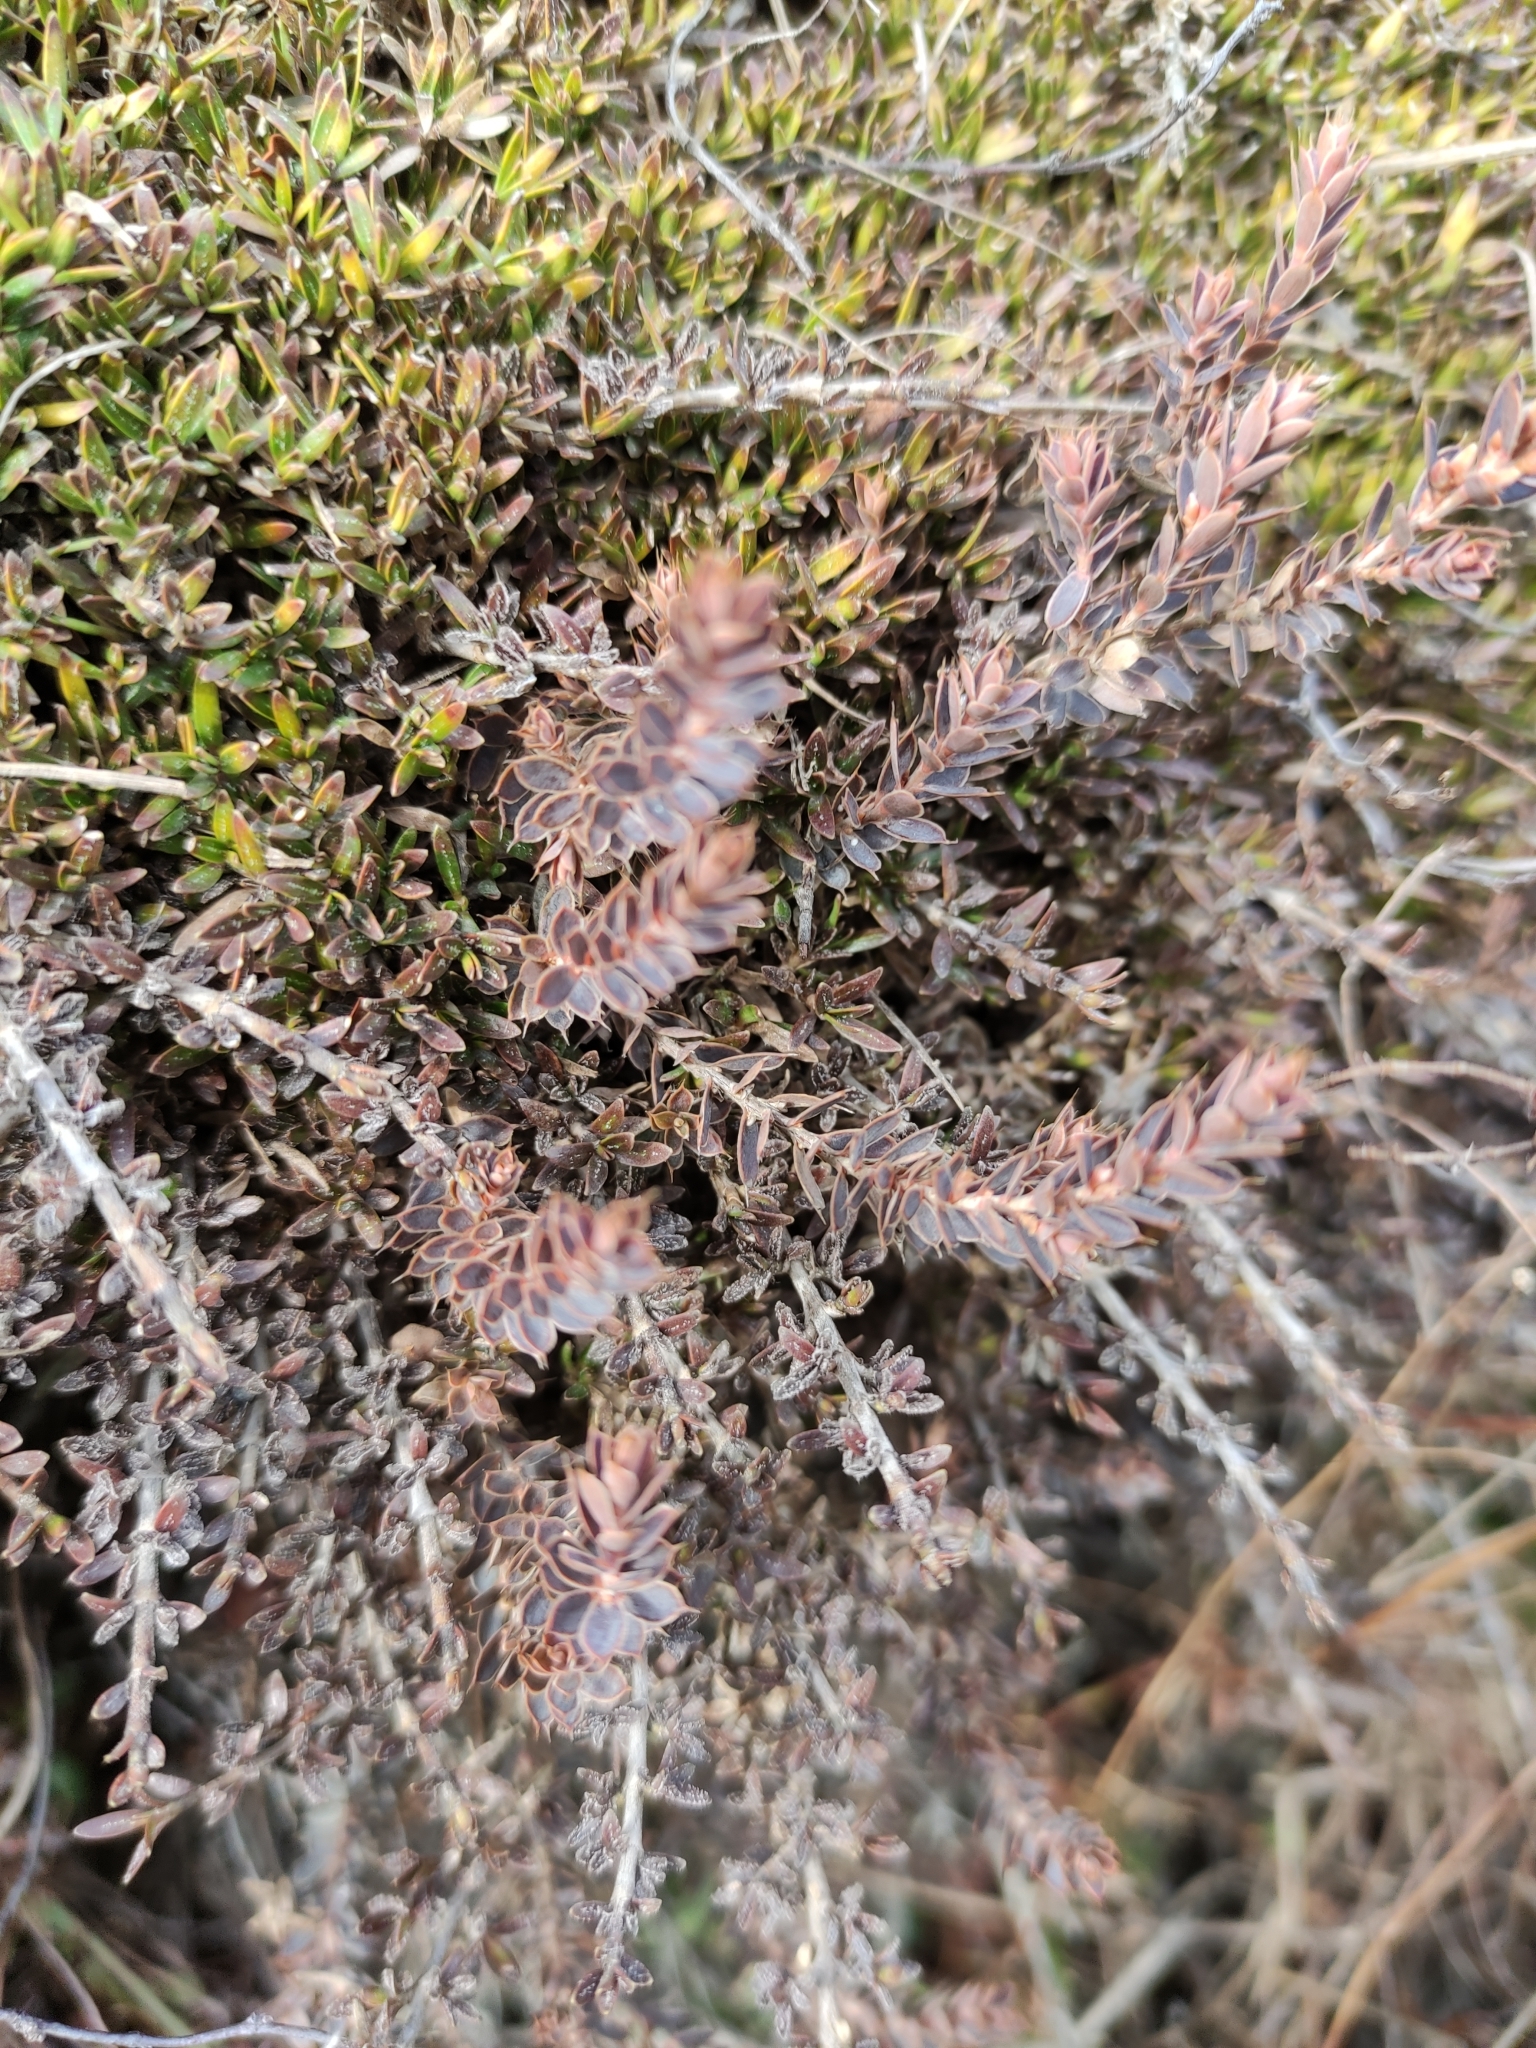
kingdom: Plantae
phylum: Tracheophyta
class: Magnoliopsida
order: Ericales
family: Ericaceae
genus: Styphelia
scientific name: Styphelia nesophila
